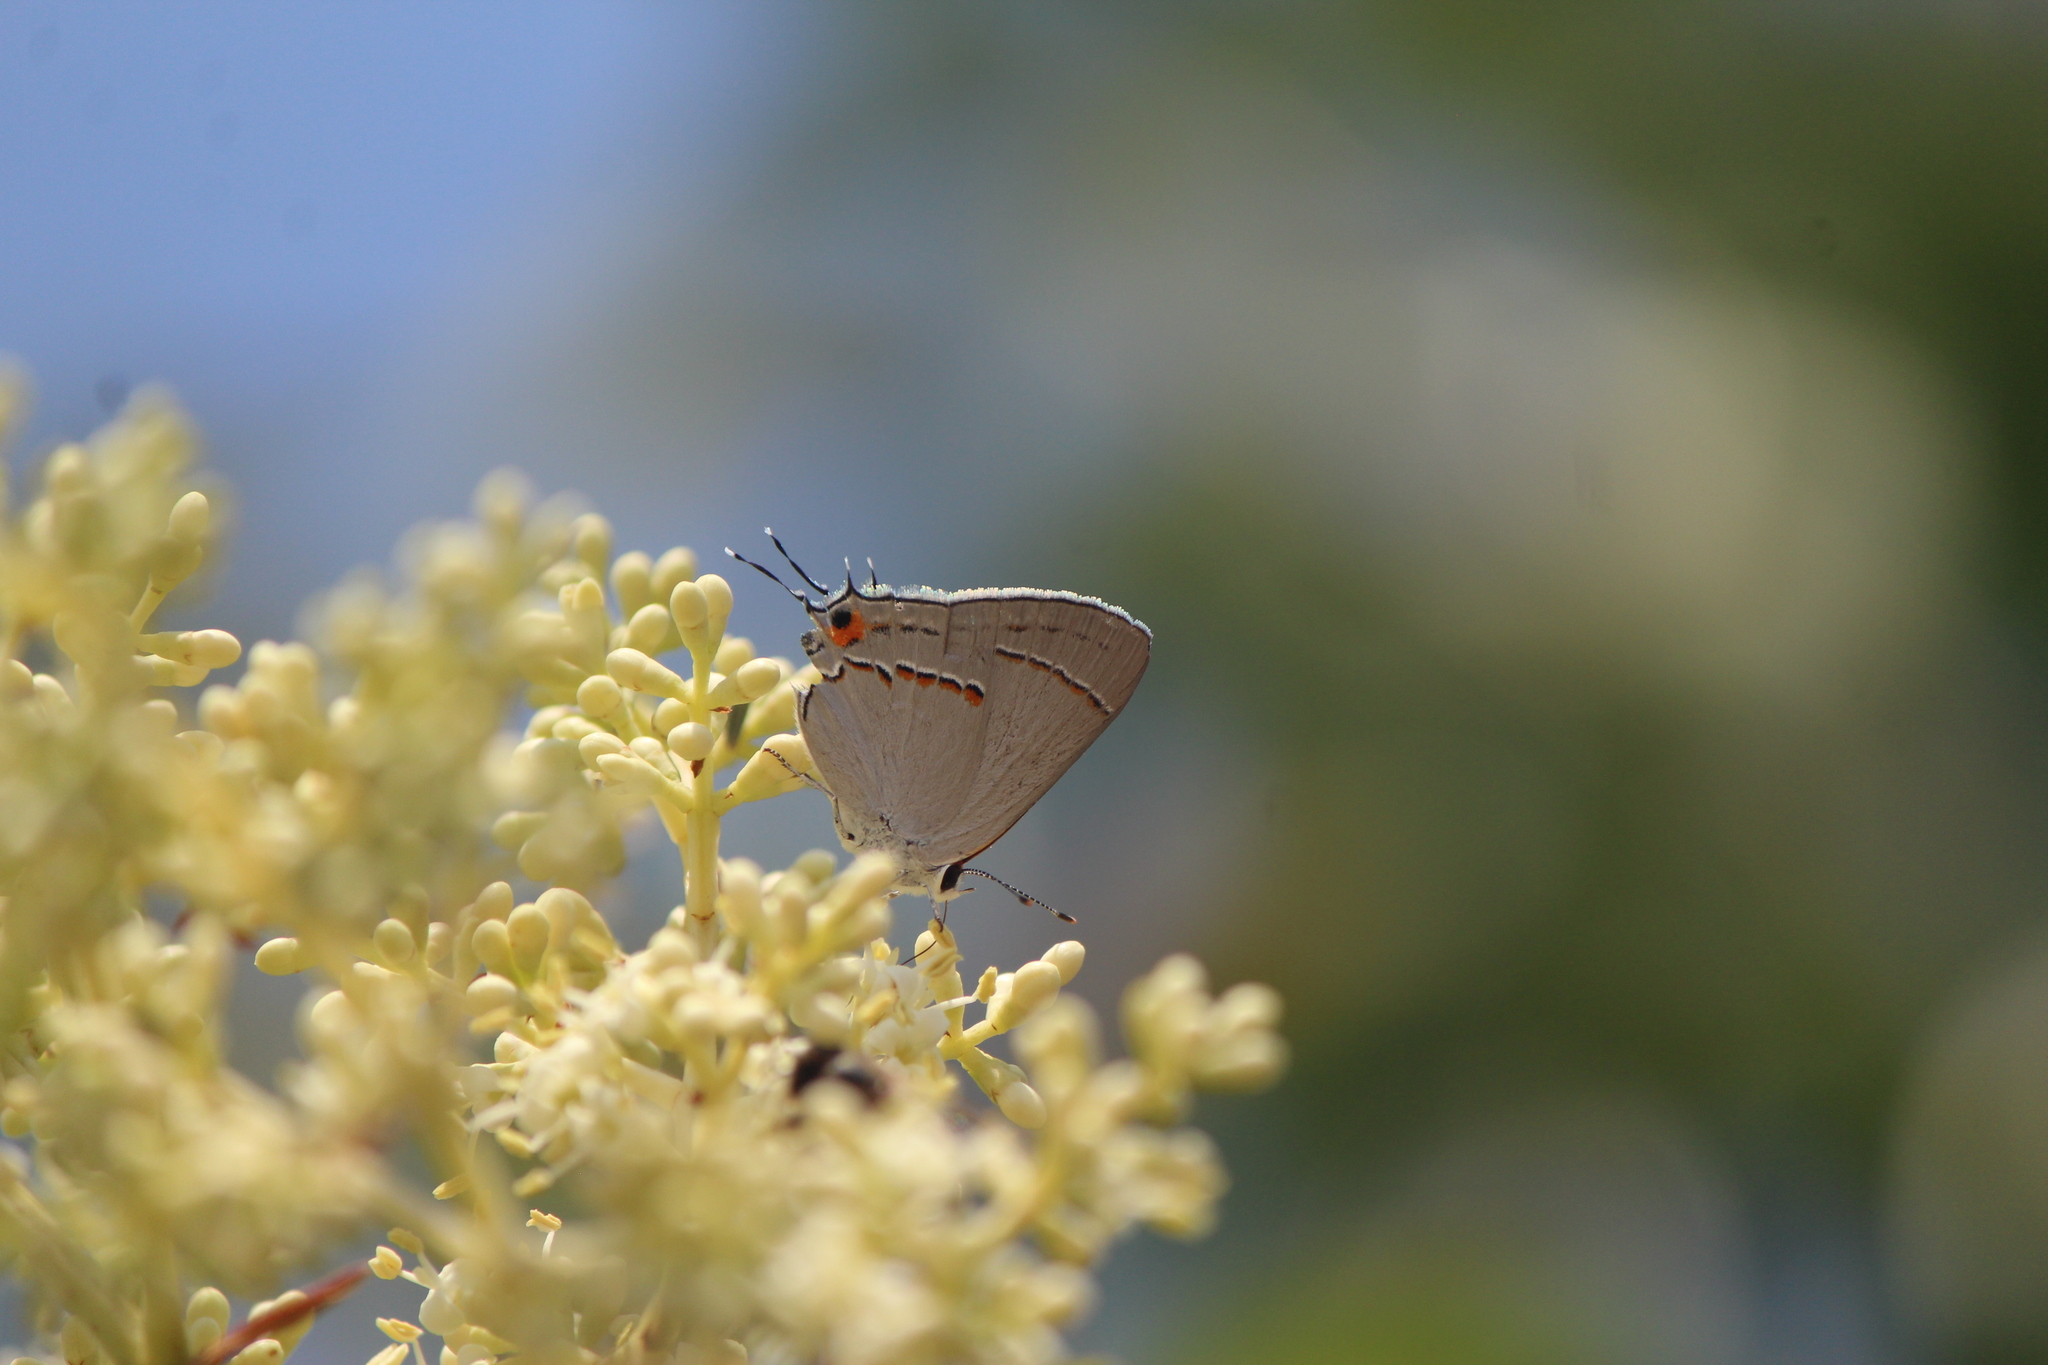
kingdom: Animalia
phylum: Arthropoda
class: Insecta
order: Lepidoptera
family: Lycaenidae
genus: Strymon
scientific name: Strymon melinus
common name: Gray hairstreak
